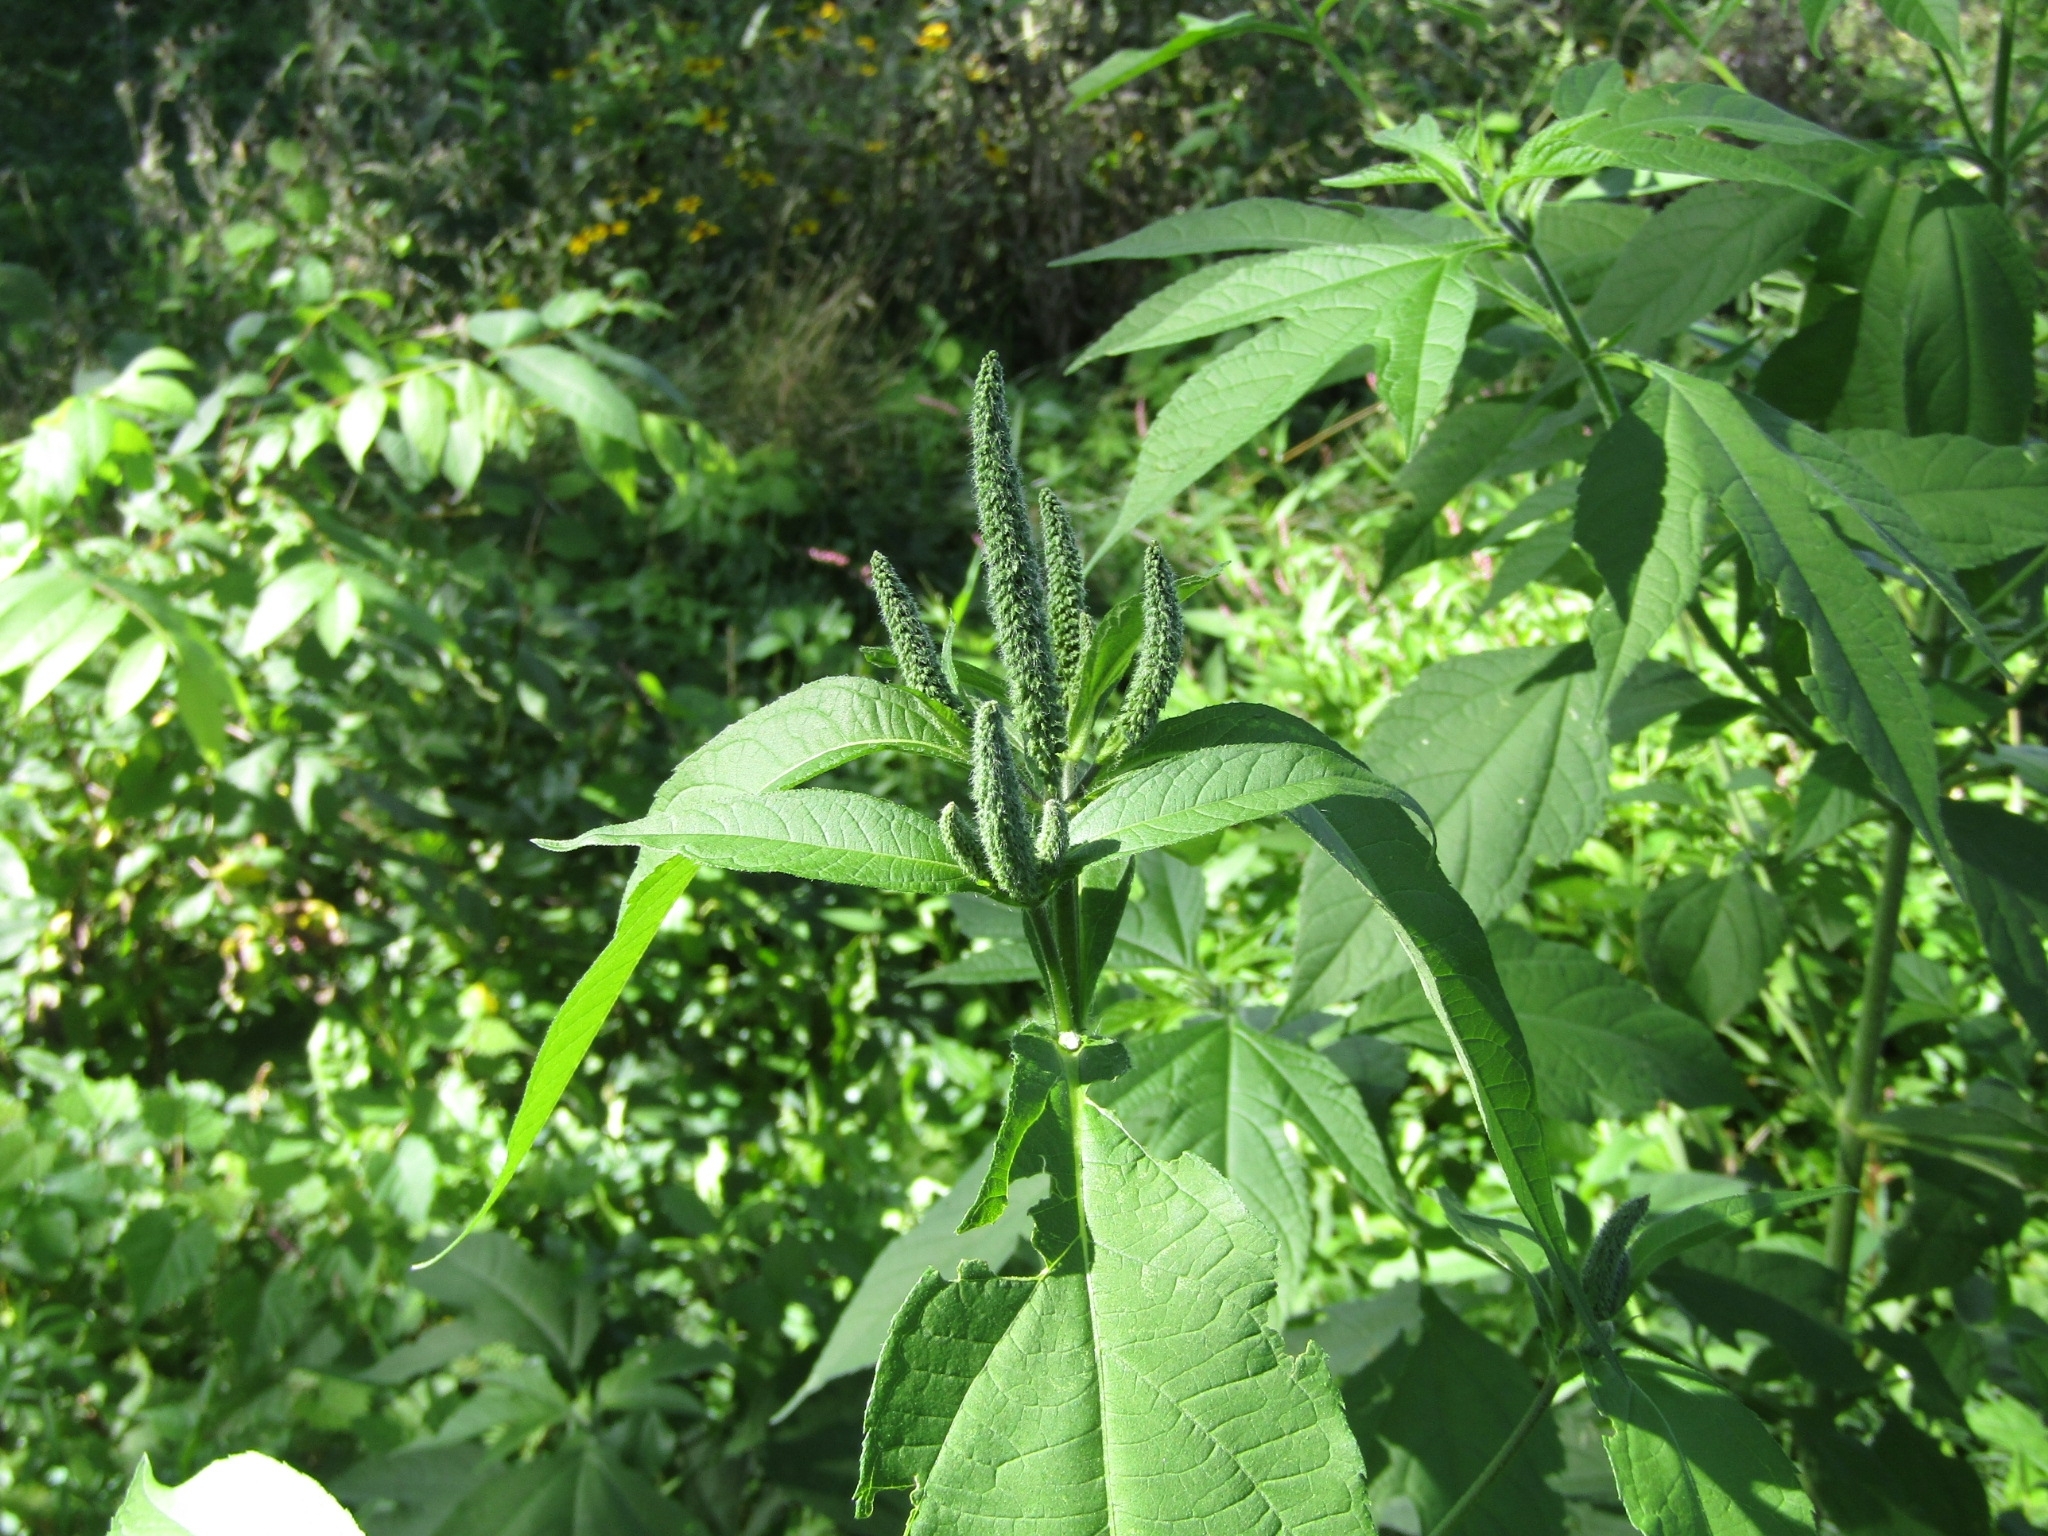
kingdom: Plantae
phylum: Tracheophyta
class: Magnoliopsida
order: Asterales
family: Asteraceae
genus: Ambrosia
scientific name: Ambrosia trifida
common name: Giant ragweed
